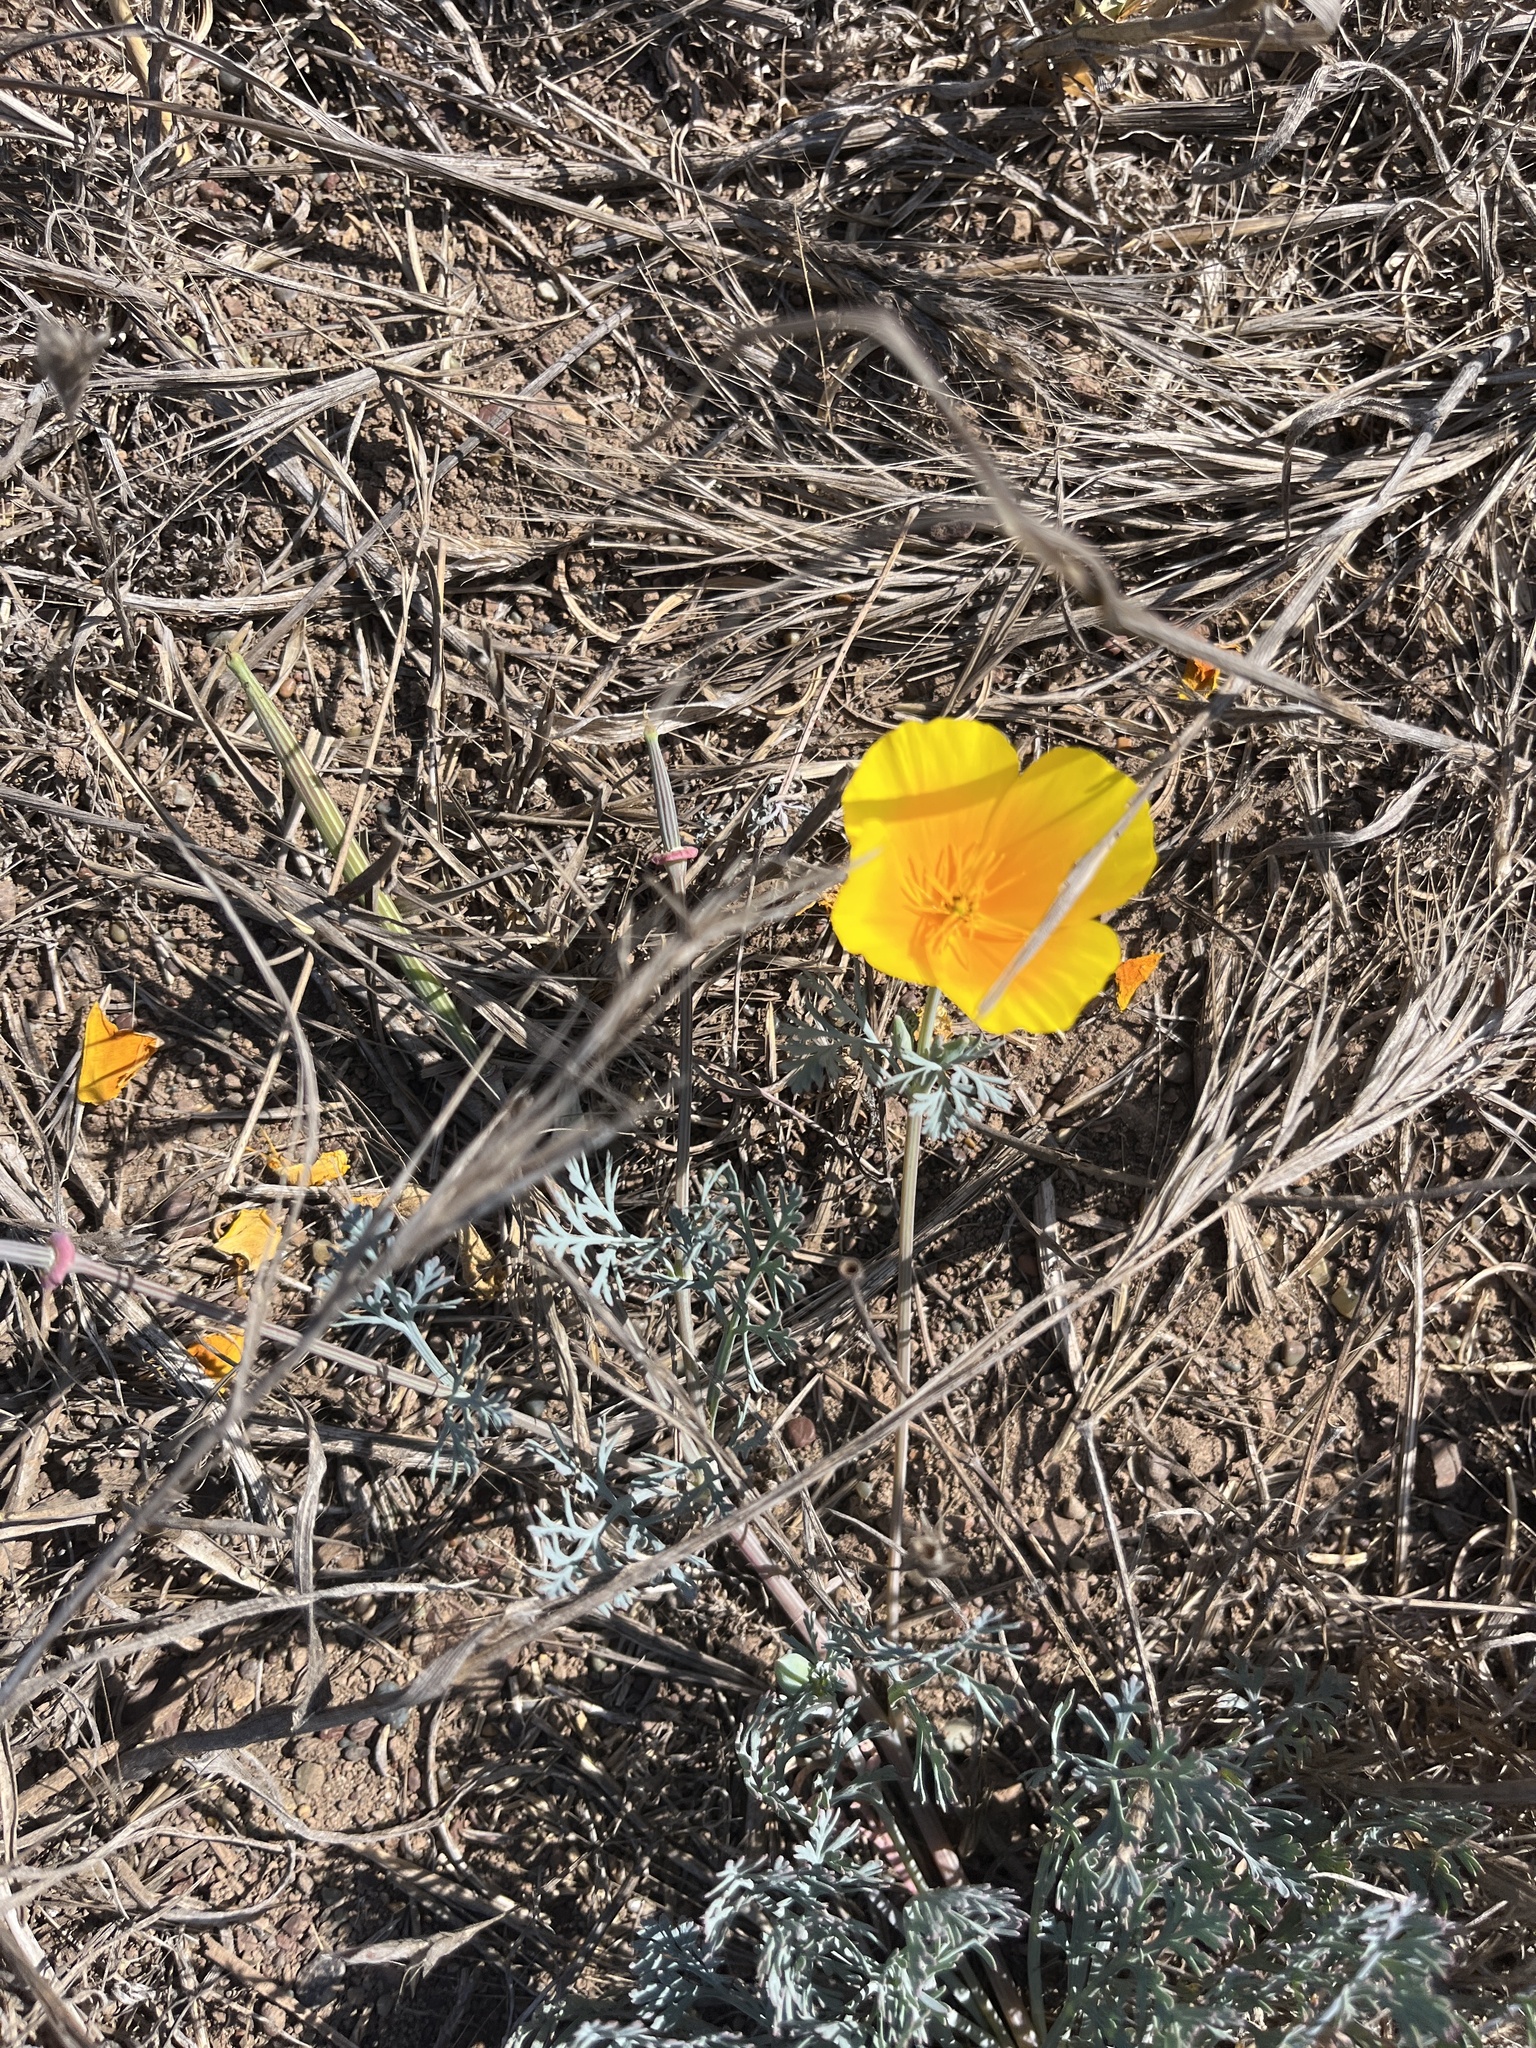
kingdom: Plantae
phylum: Tracheophyta
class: Magnoliopsida
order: Ranunculales
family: Papaveraceae
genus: Eschscholzia
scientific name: Eschscholzia californica
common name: California poppy
